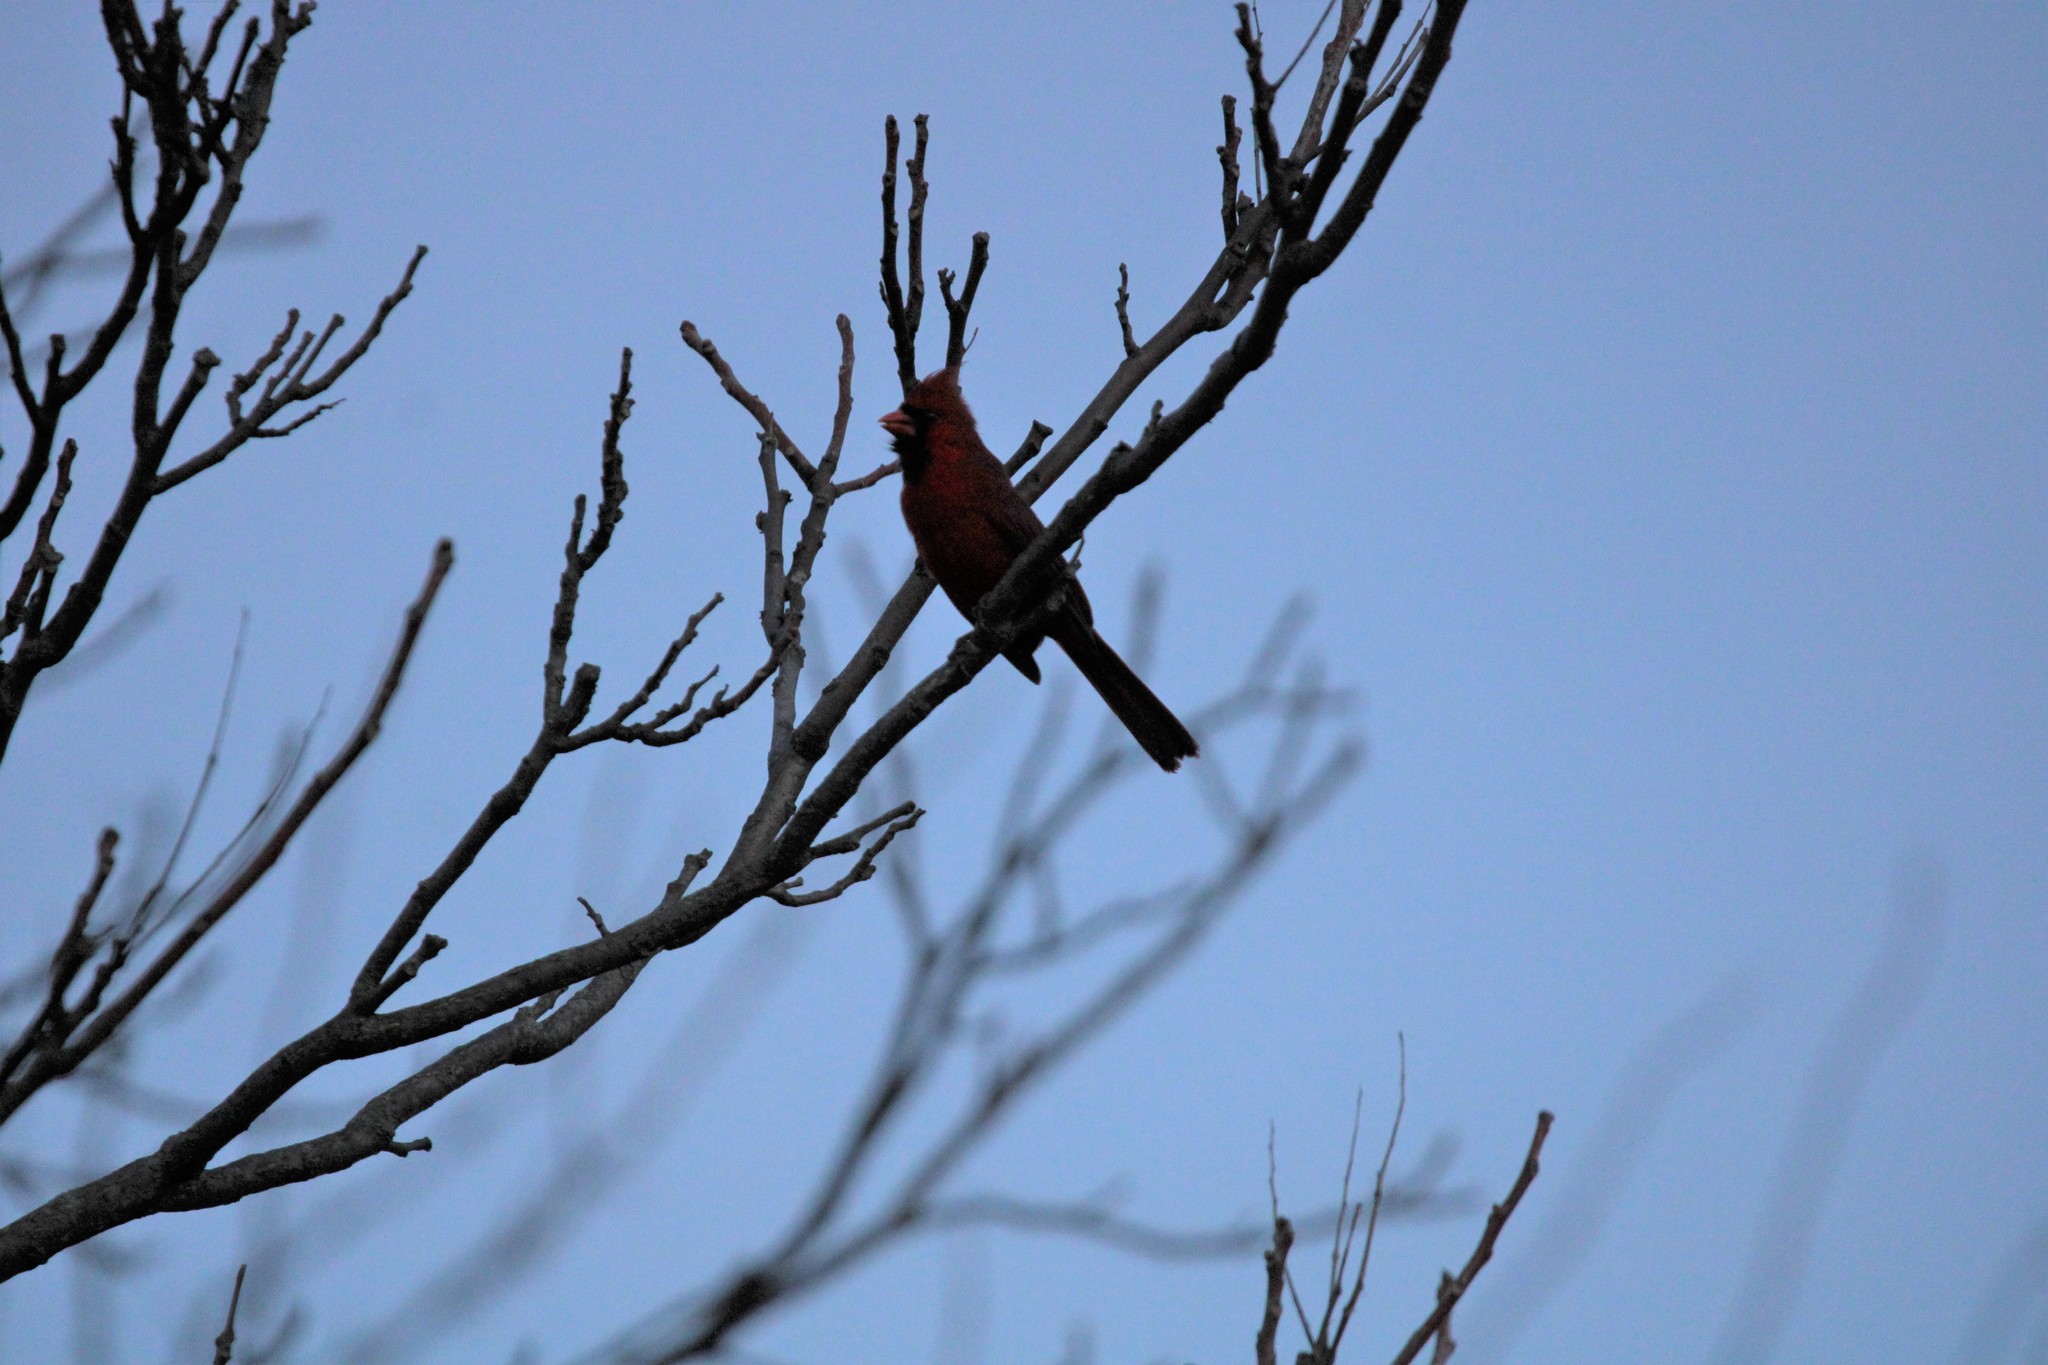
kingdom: Animalia
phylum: Chordata
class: Aves
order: Passeriformes
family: Cardinalidae
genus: Cardinalis
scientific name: Cardinalis cardinalis
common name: Northern cardinal
